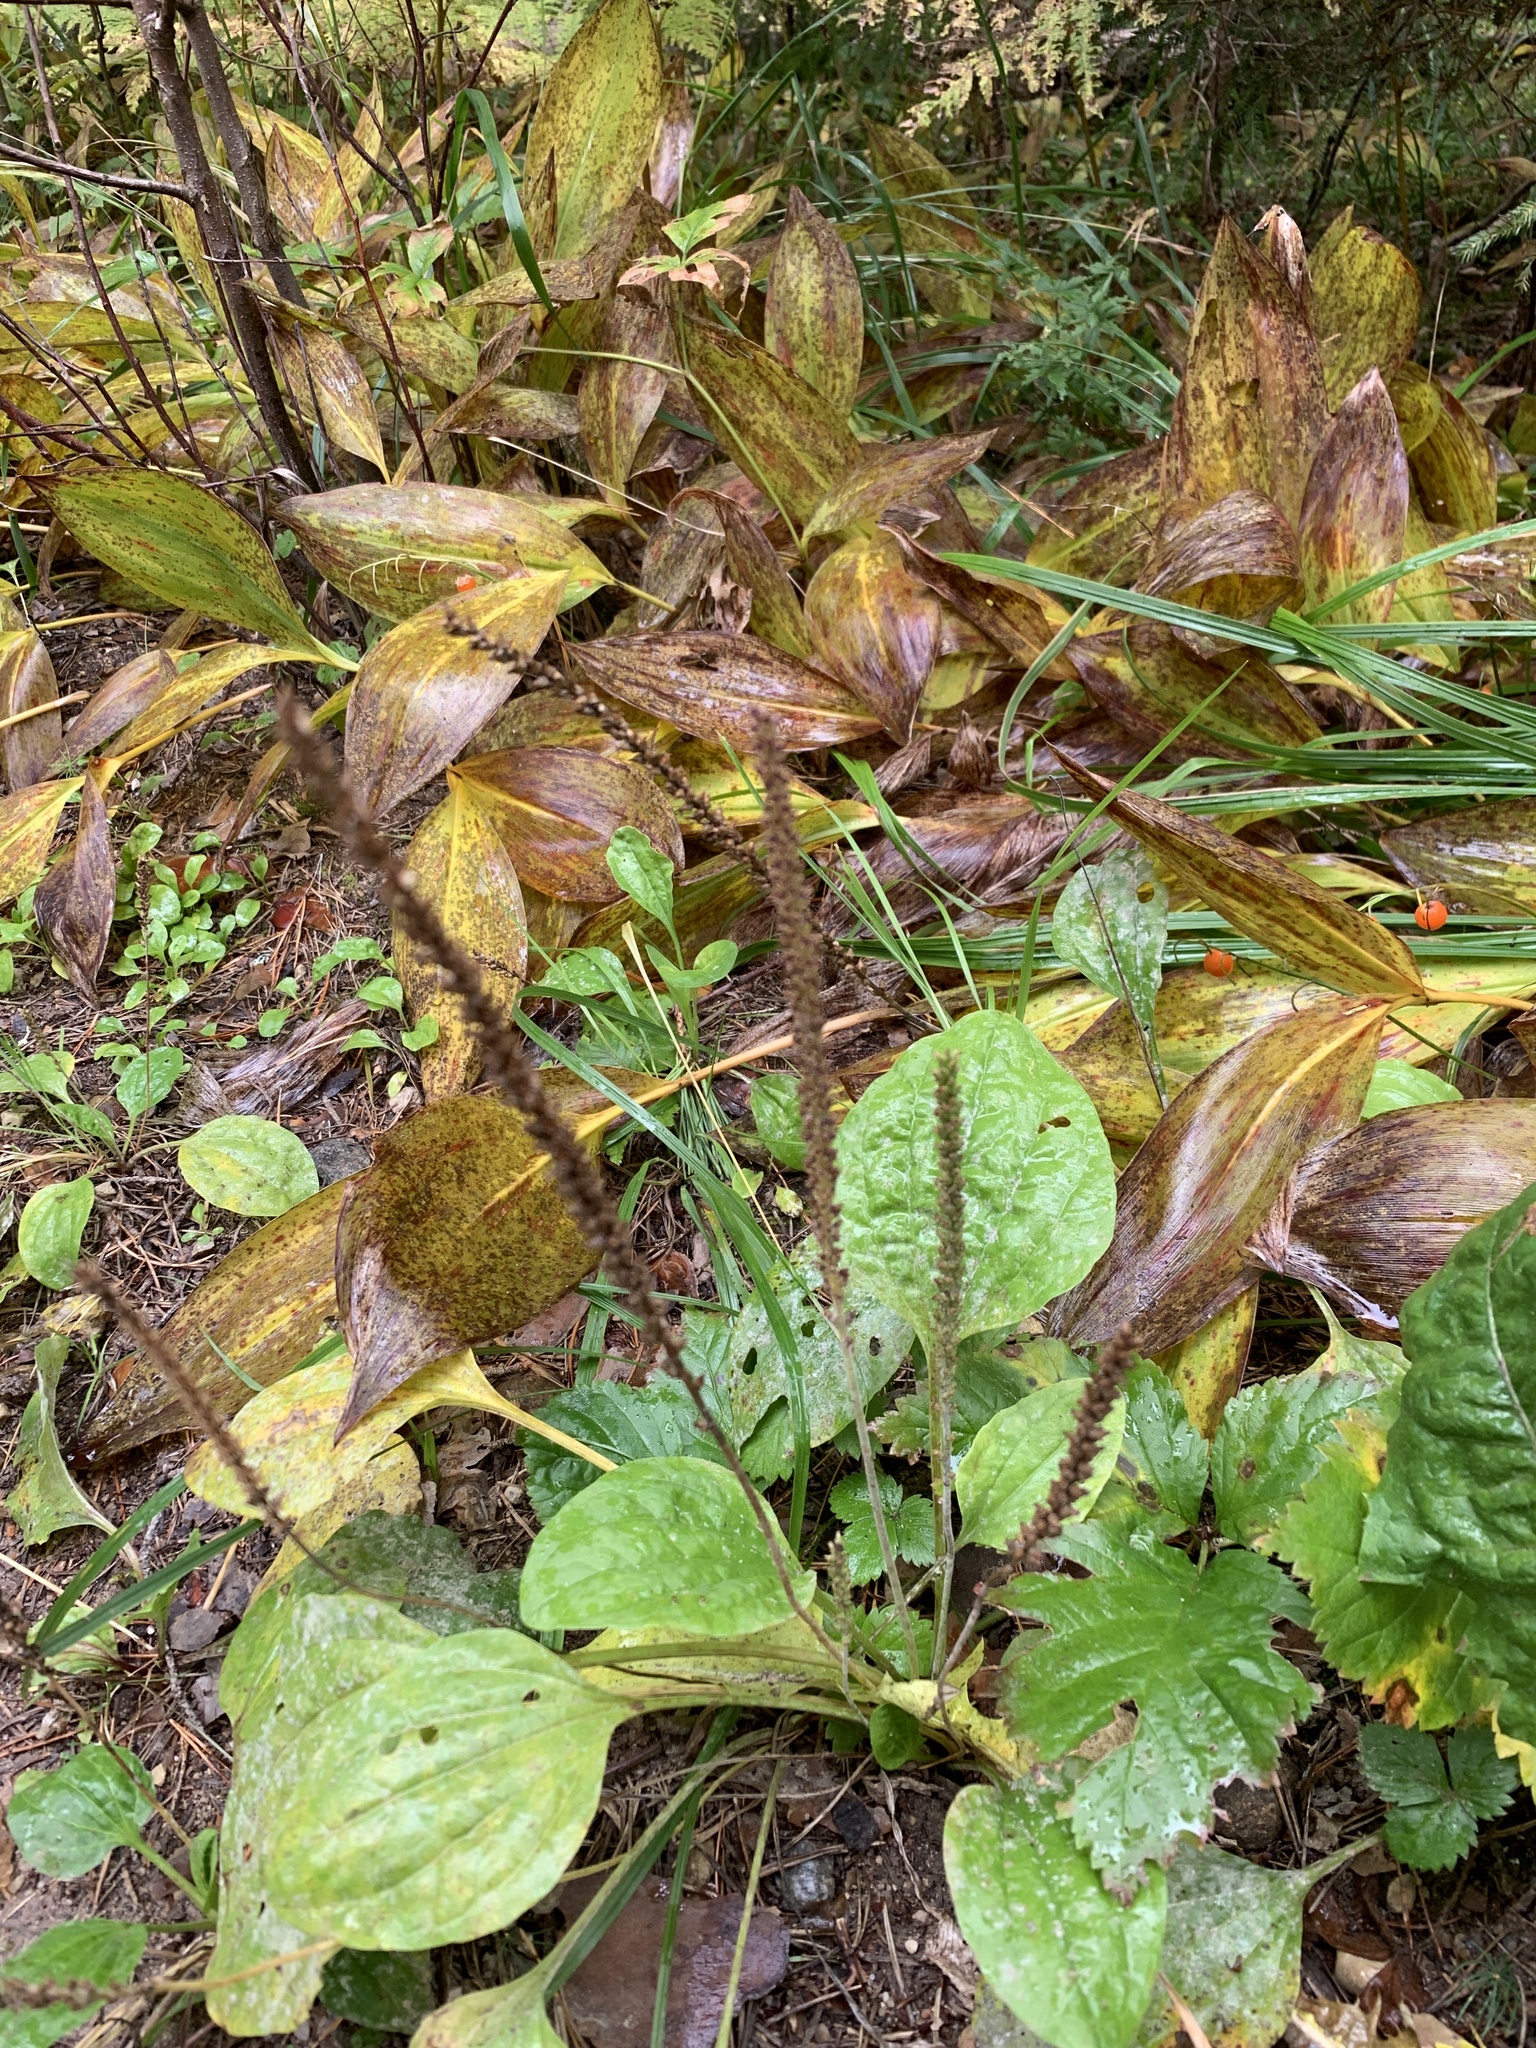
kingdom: Plantae
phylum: Tracheophyta
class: Magnoliopsida
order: Lamiales
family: Plantaginaceae
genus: Plantago
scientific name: Plantago major
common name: Common plantain
